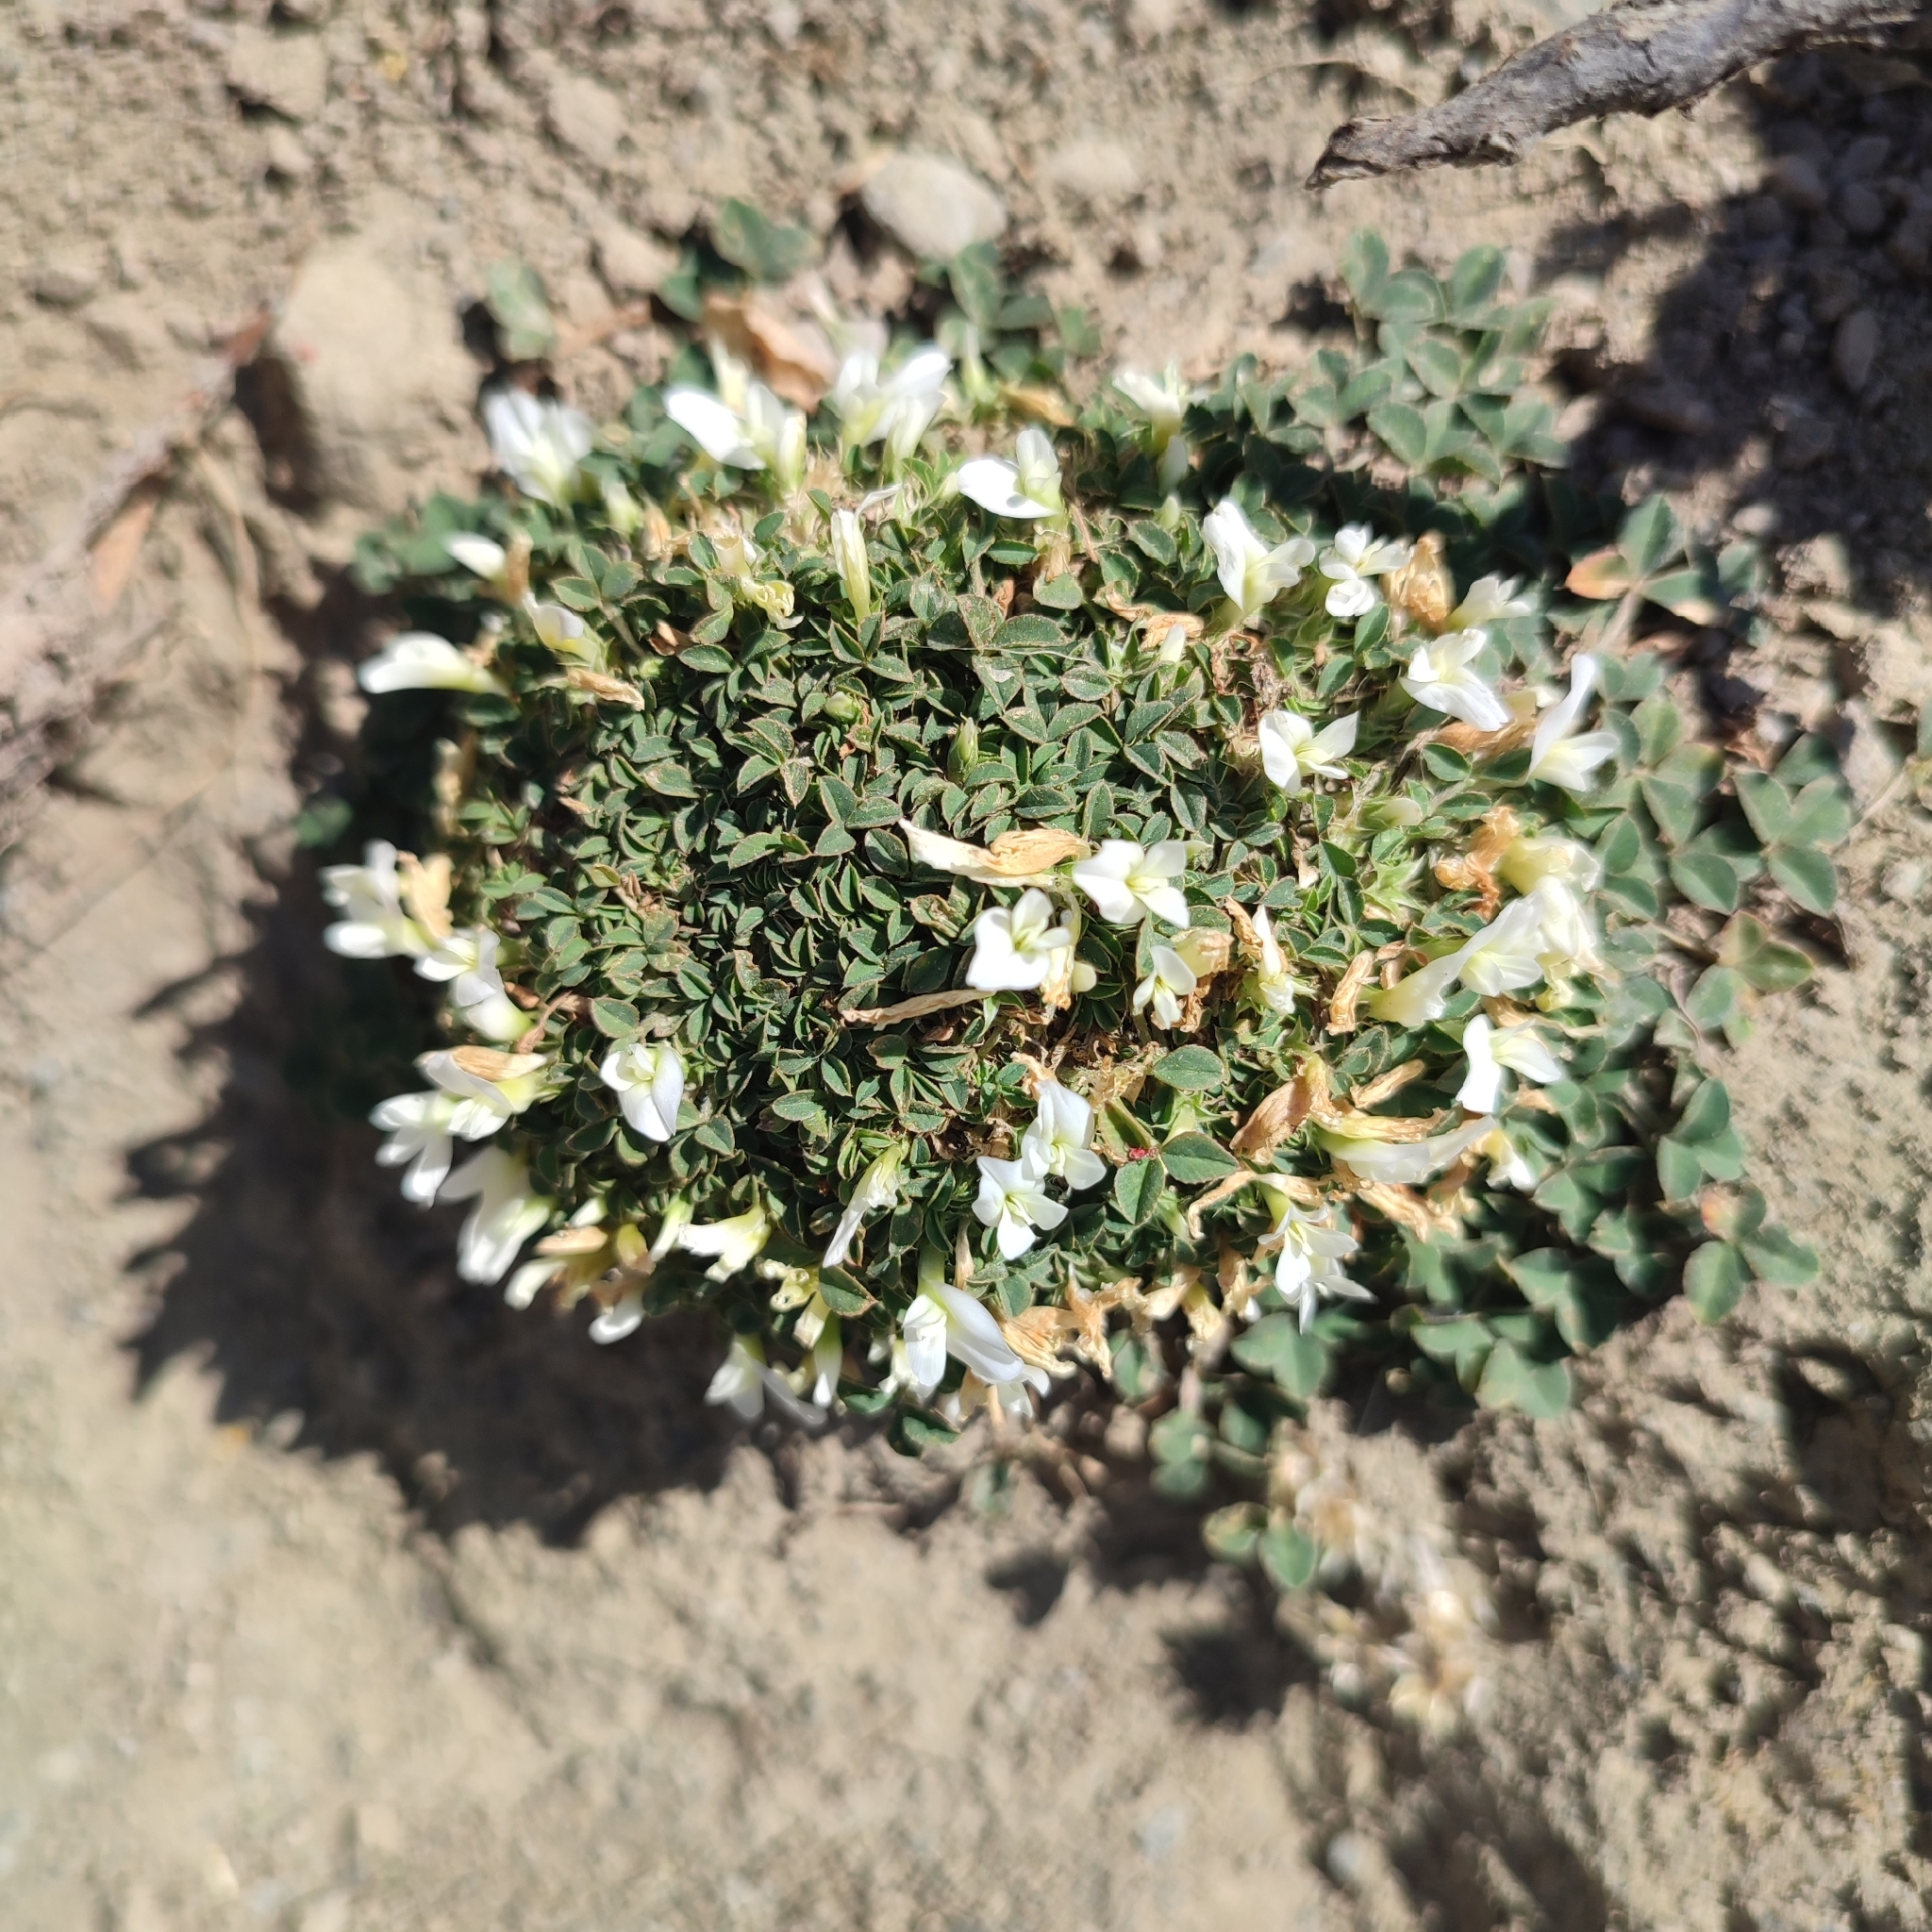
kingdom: Plantae
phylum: Tracheophyta
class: Magnoliopsida
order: Fabales
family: Fabaceae
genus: Trifolium
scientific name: Trifolium uniflorum
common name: One-flower clover
